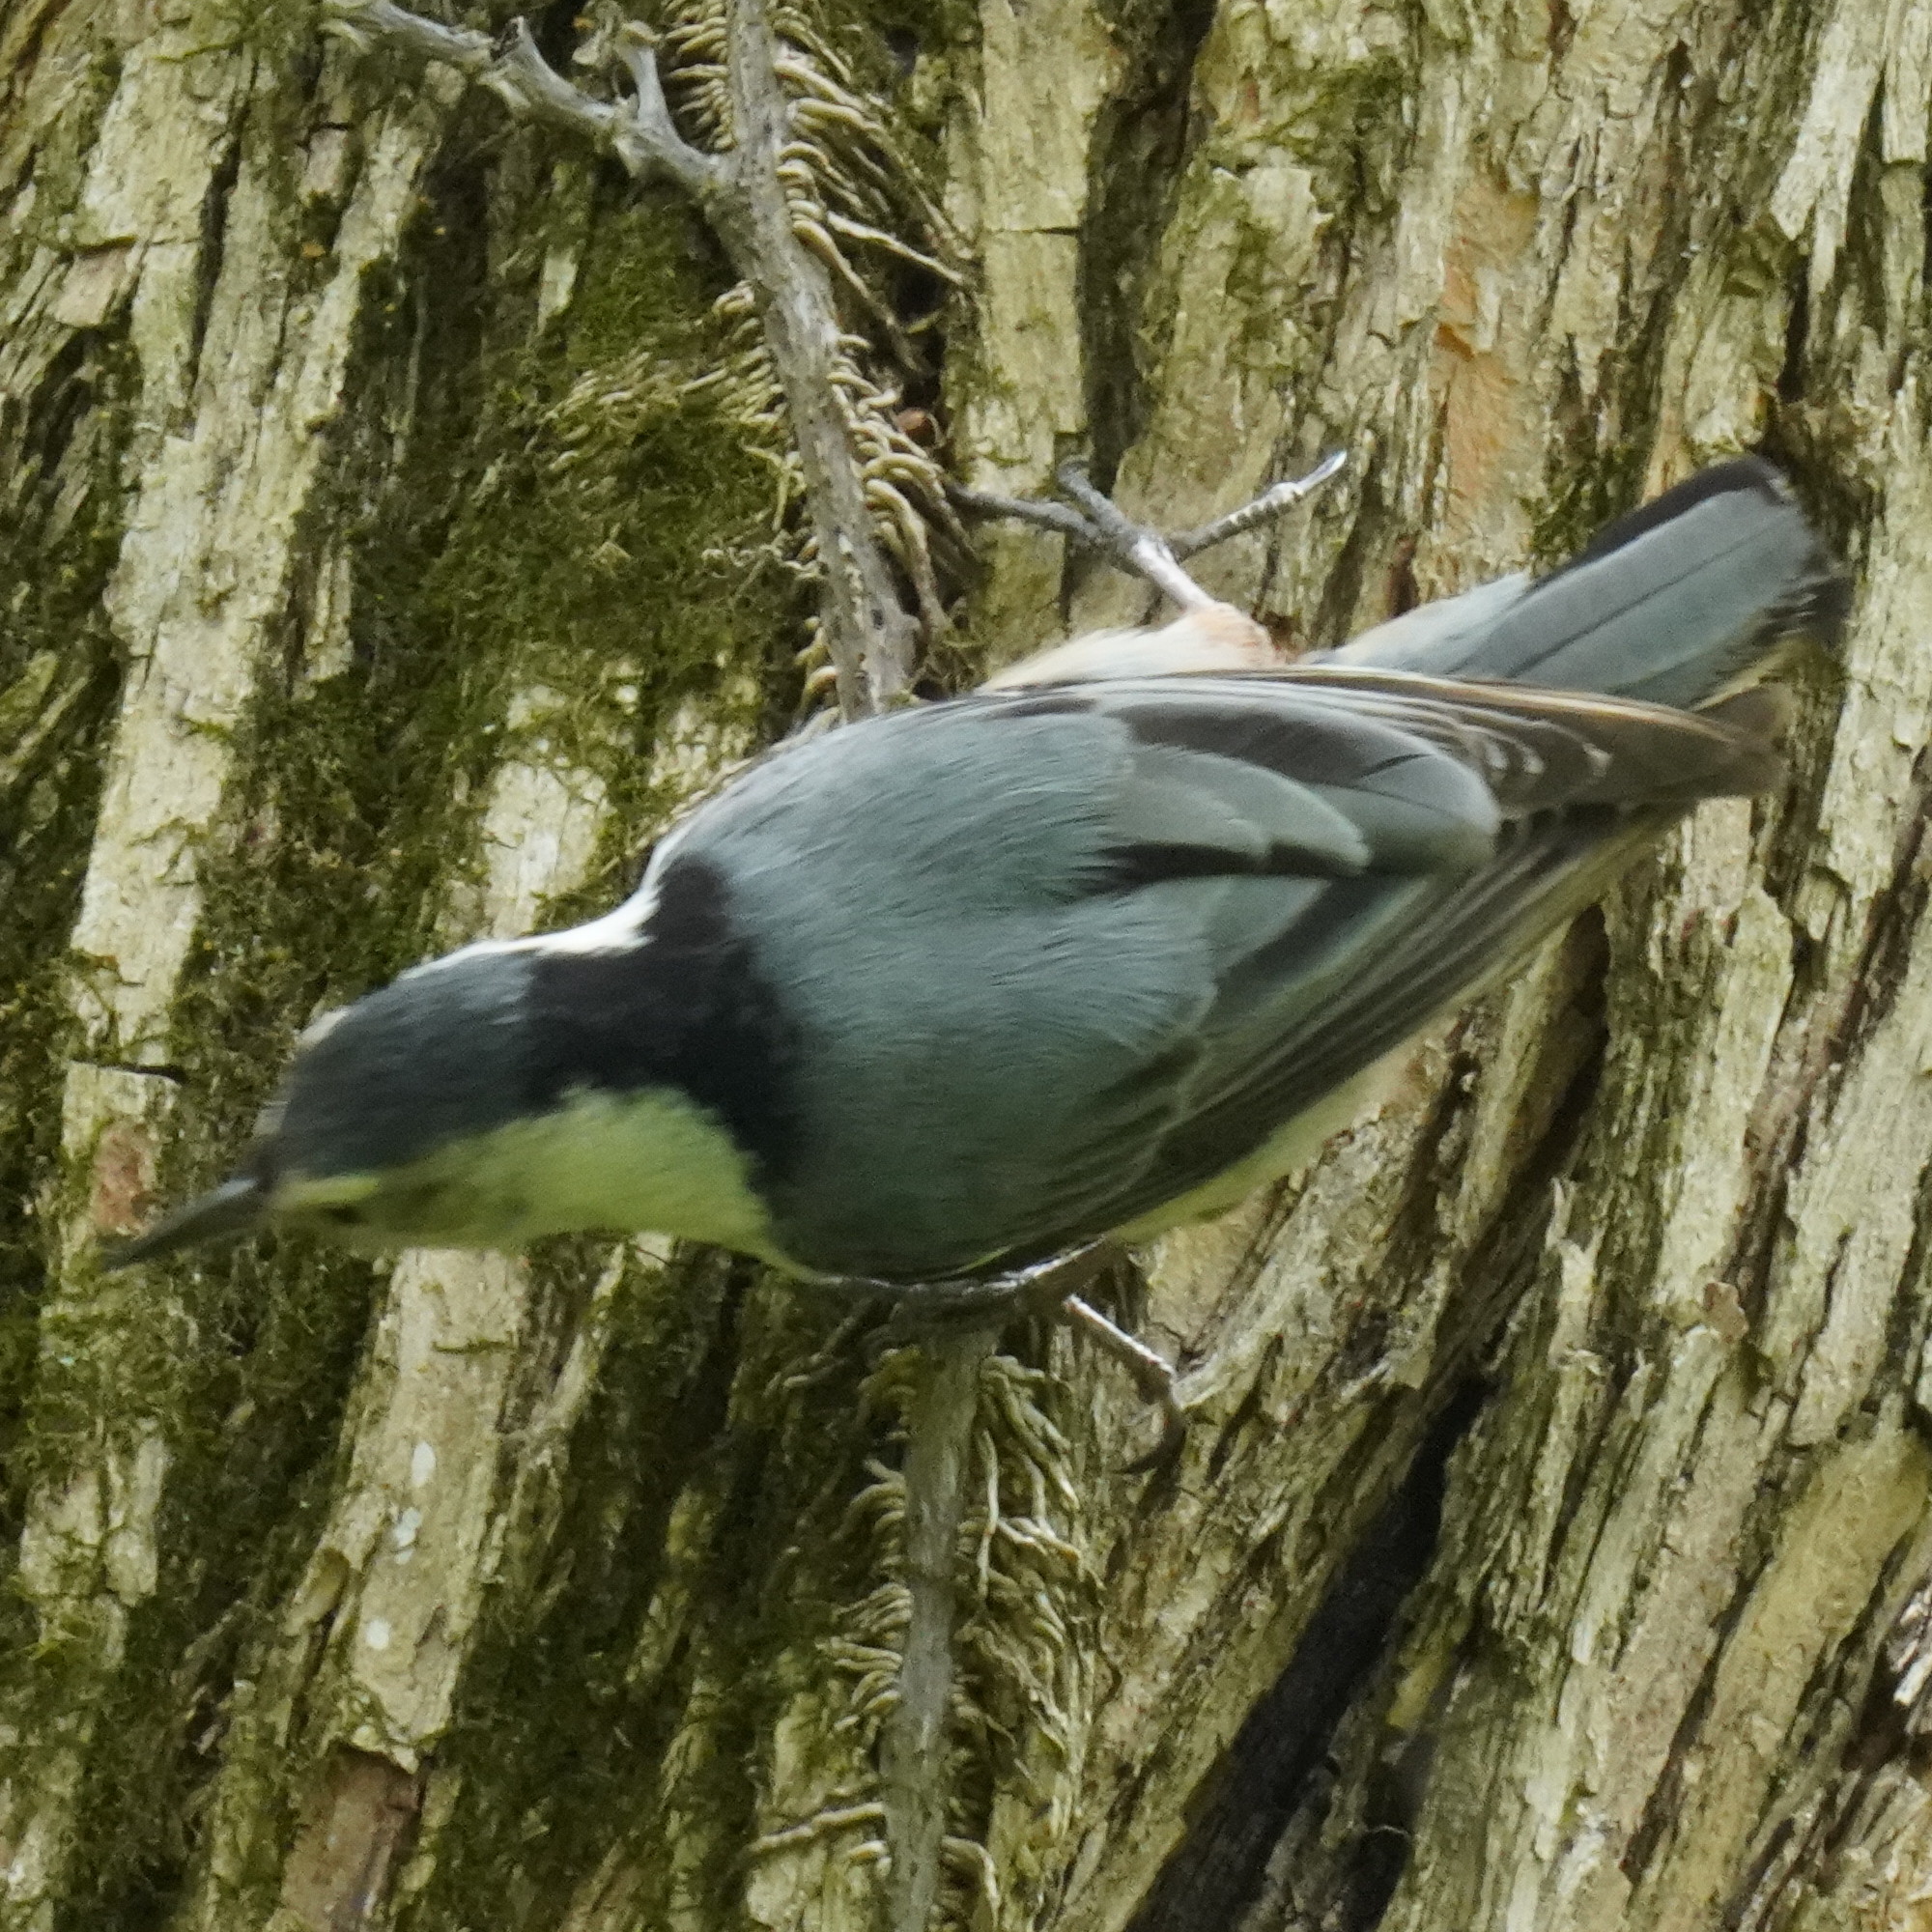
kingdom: Animalia
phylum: Chordata
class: Aves
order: Passeriformes
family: Sittidae
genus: Sitta
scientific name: Sitta carolinensis
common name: White-breasted nuthatch
